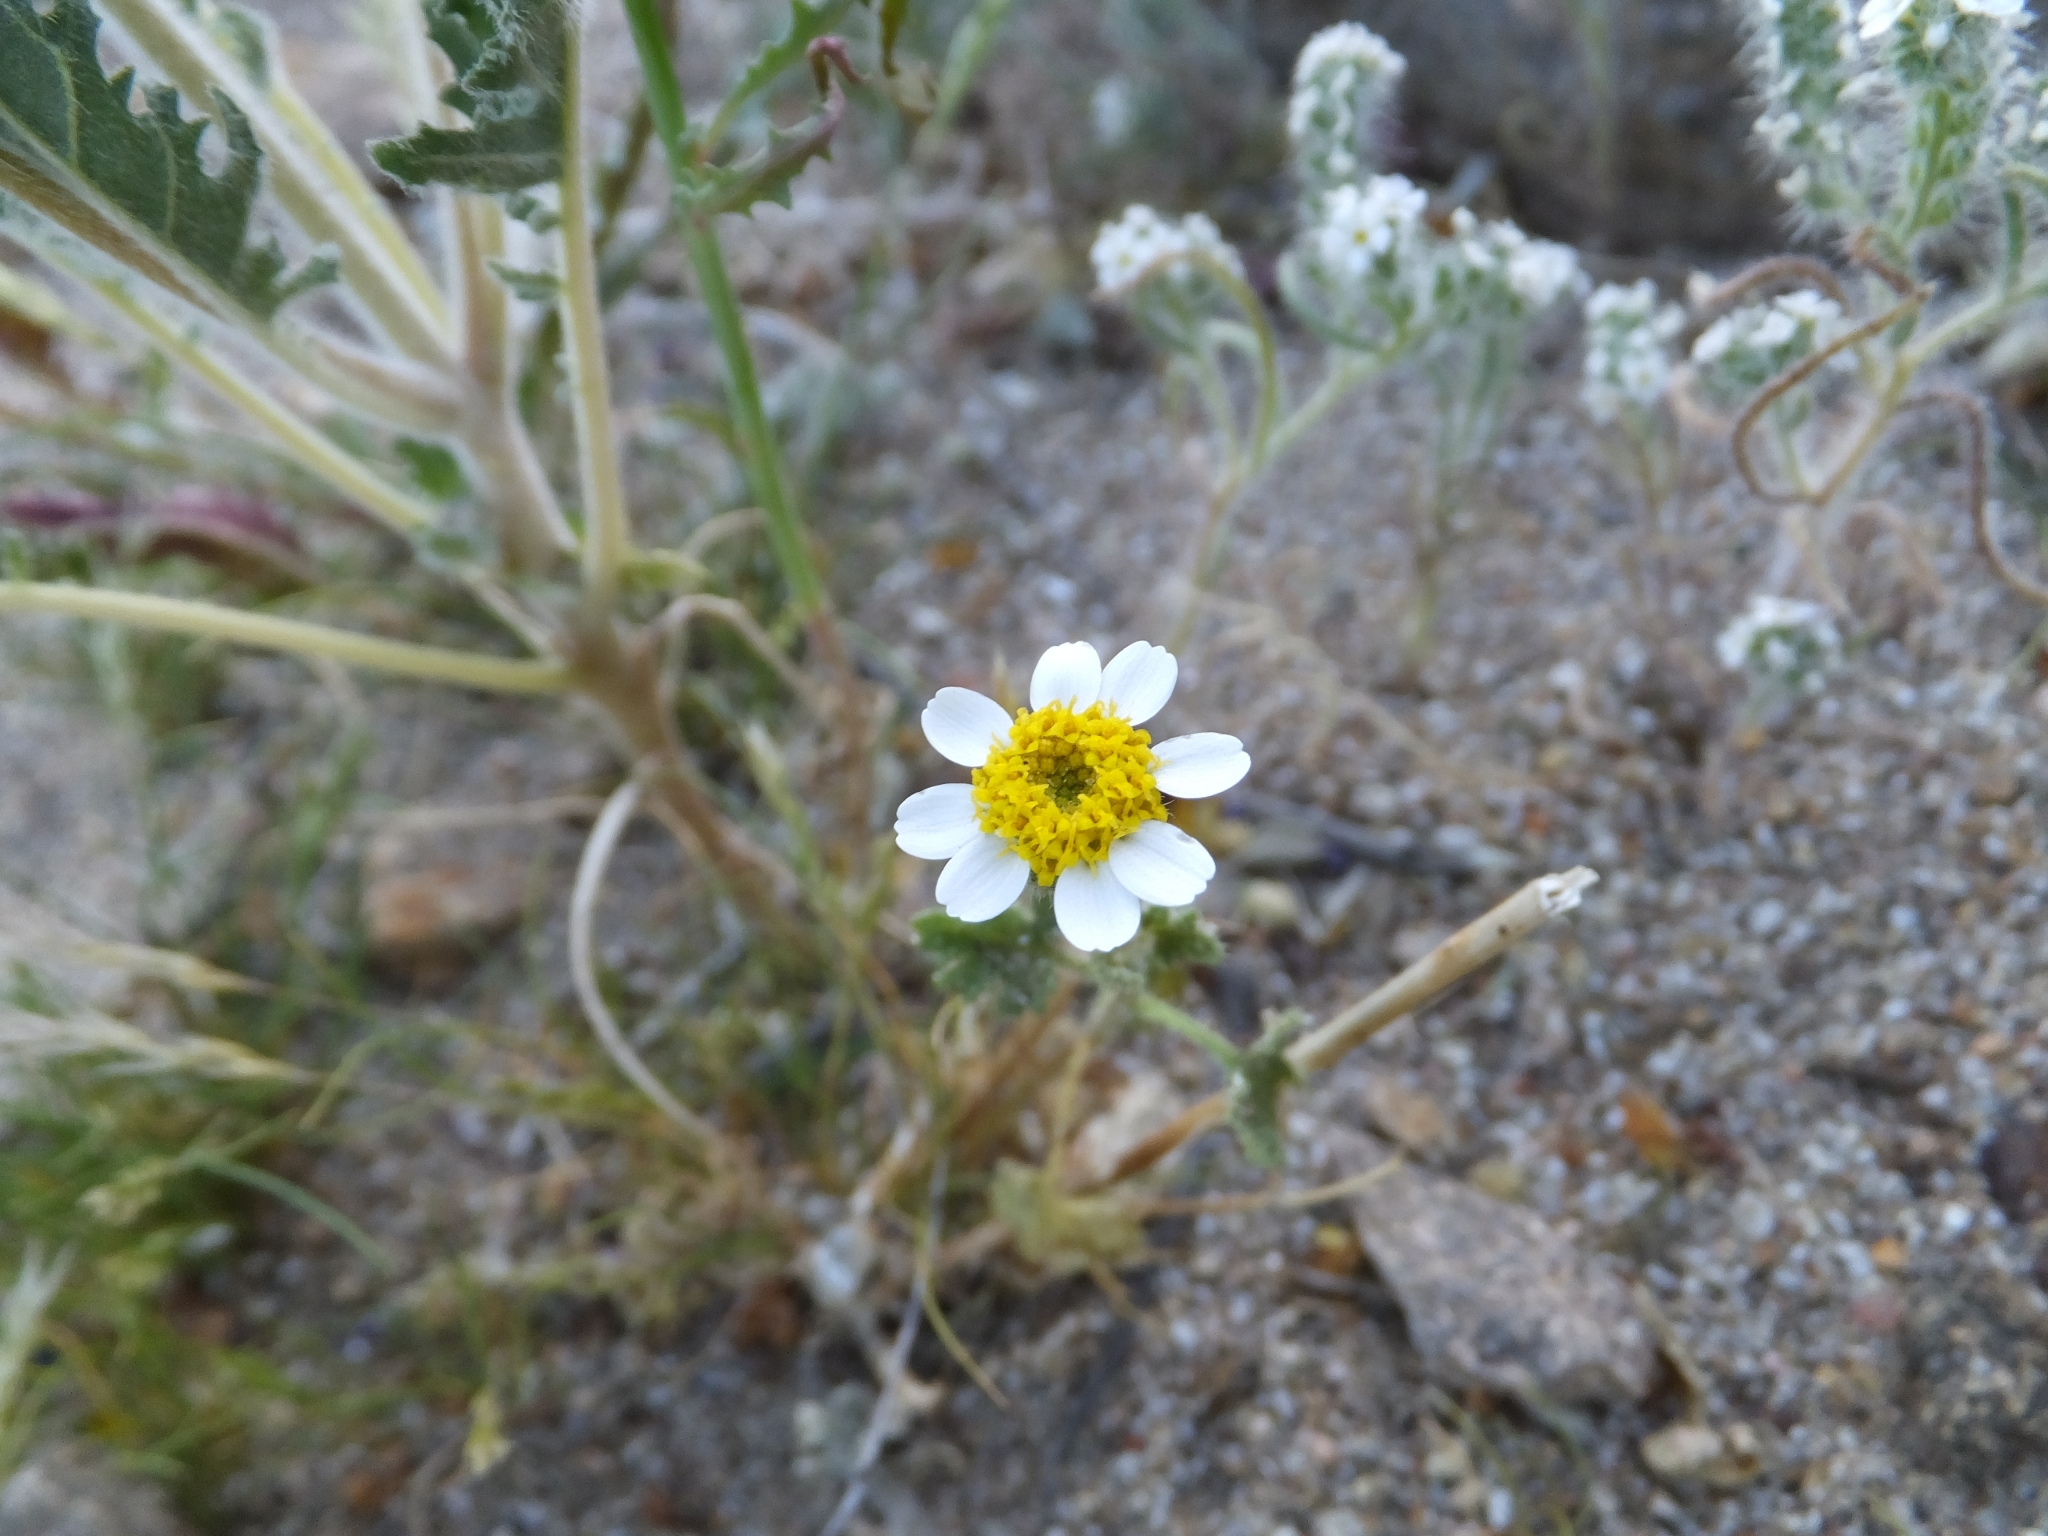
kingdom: Plantae
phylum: Tracheophyta
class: Magnoliopsida
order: Asterales
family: Asteraceae
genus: Laphamia
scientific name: Laphamia emoryi
